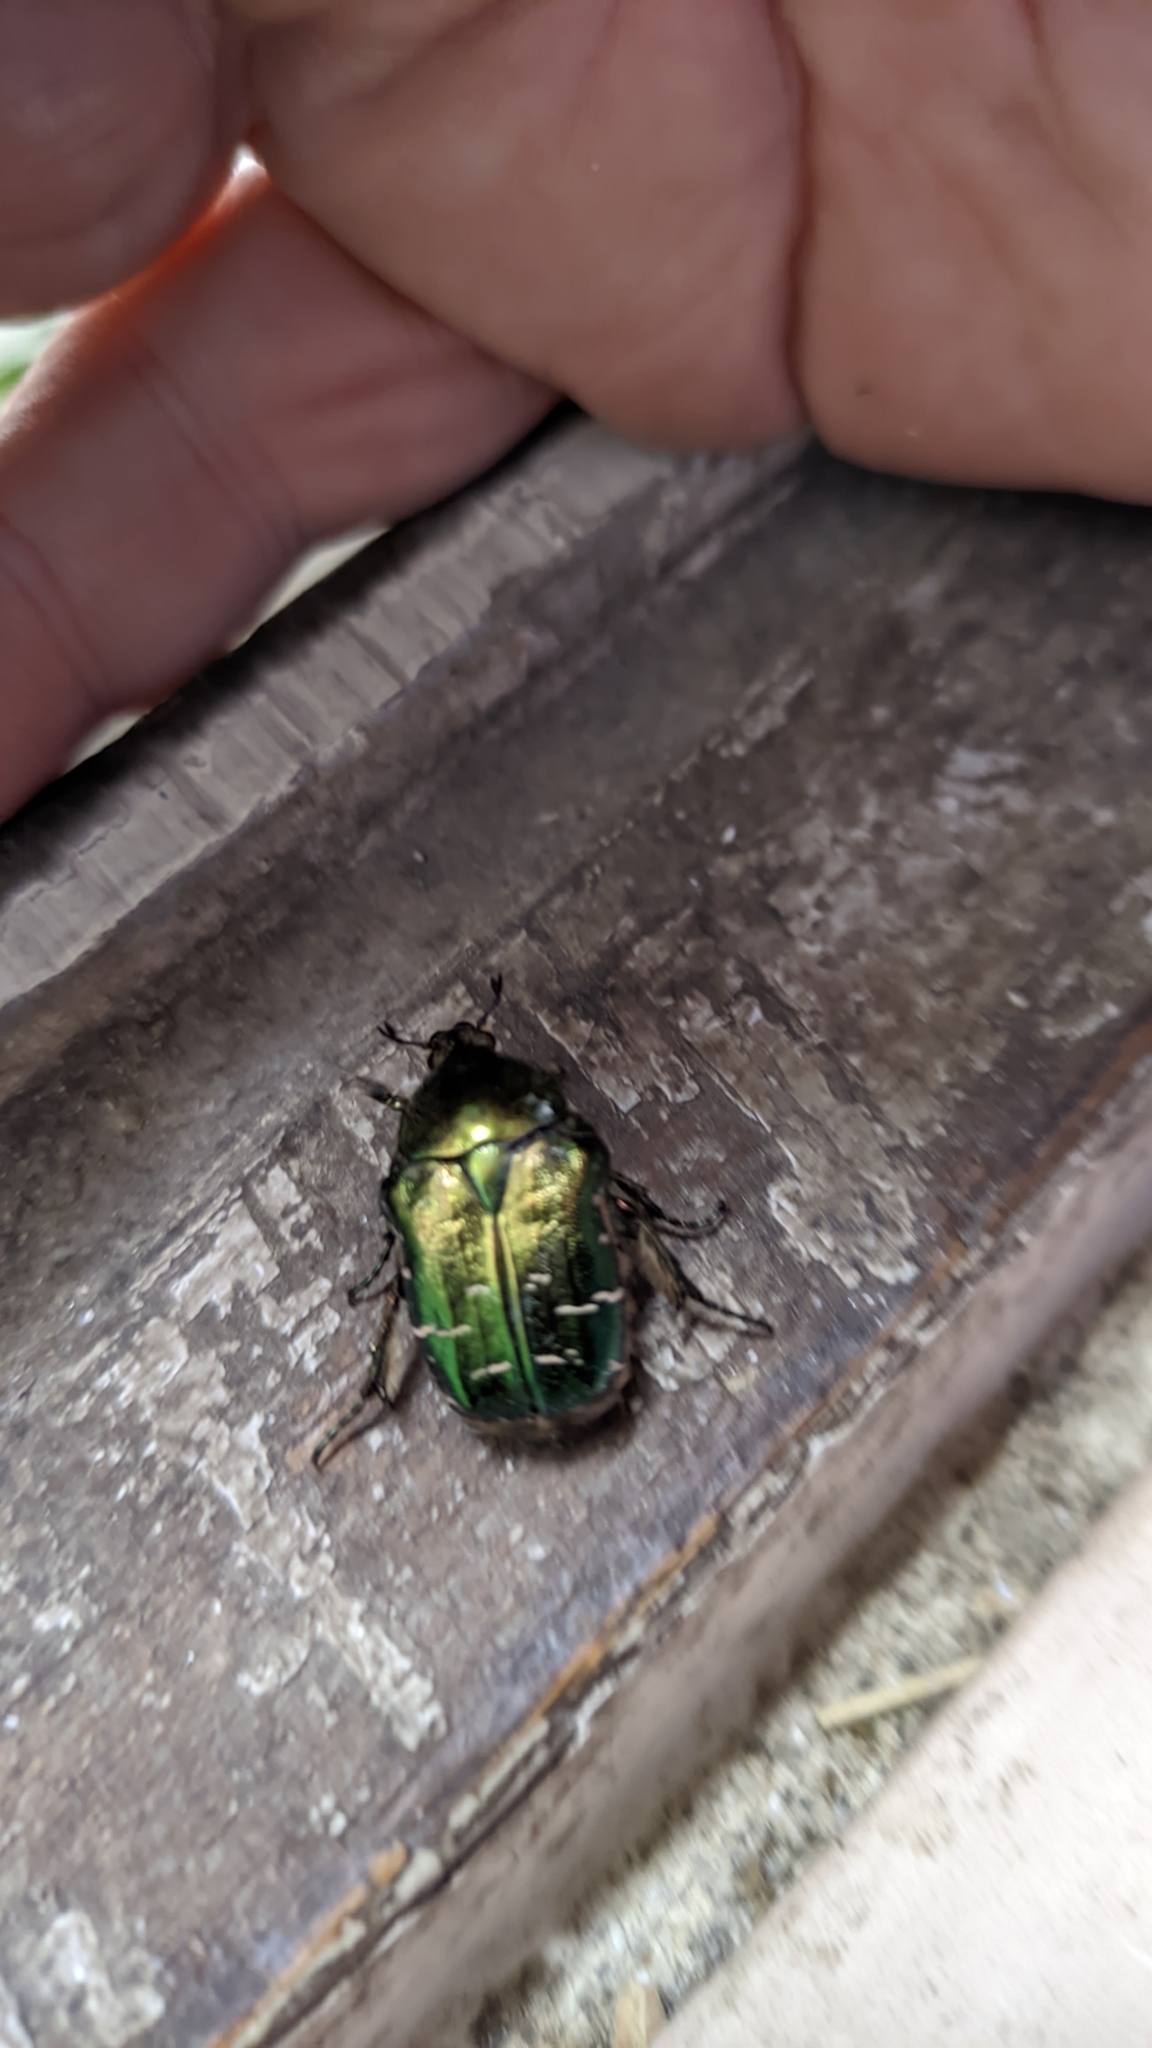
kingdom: Animalia
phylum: Arthropoda
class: Insecta
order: Coleoptera
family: Scarabaeidae
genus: Cetonia
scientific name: Cetonia aurata
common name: Rose chafer
